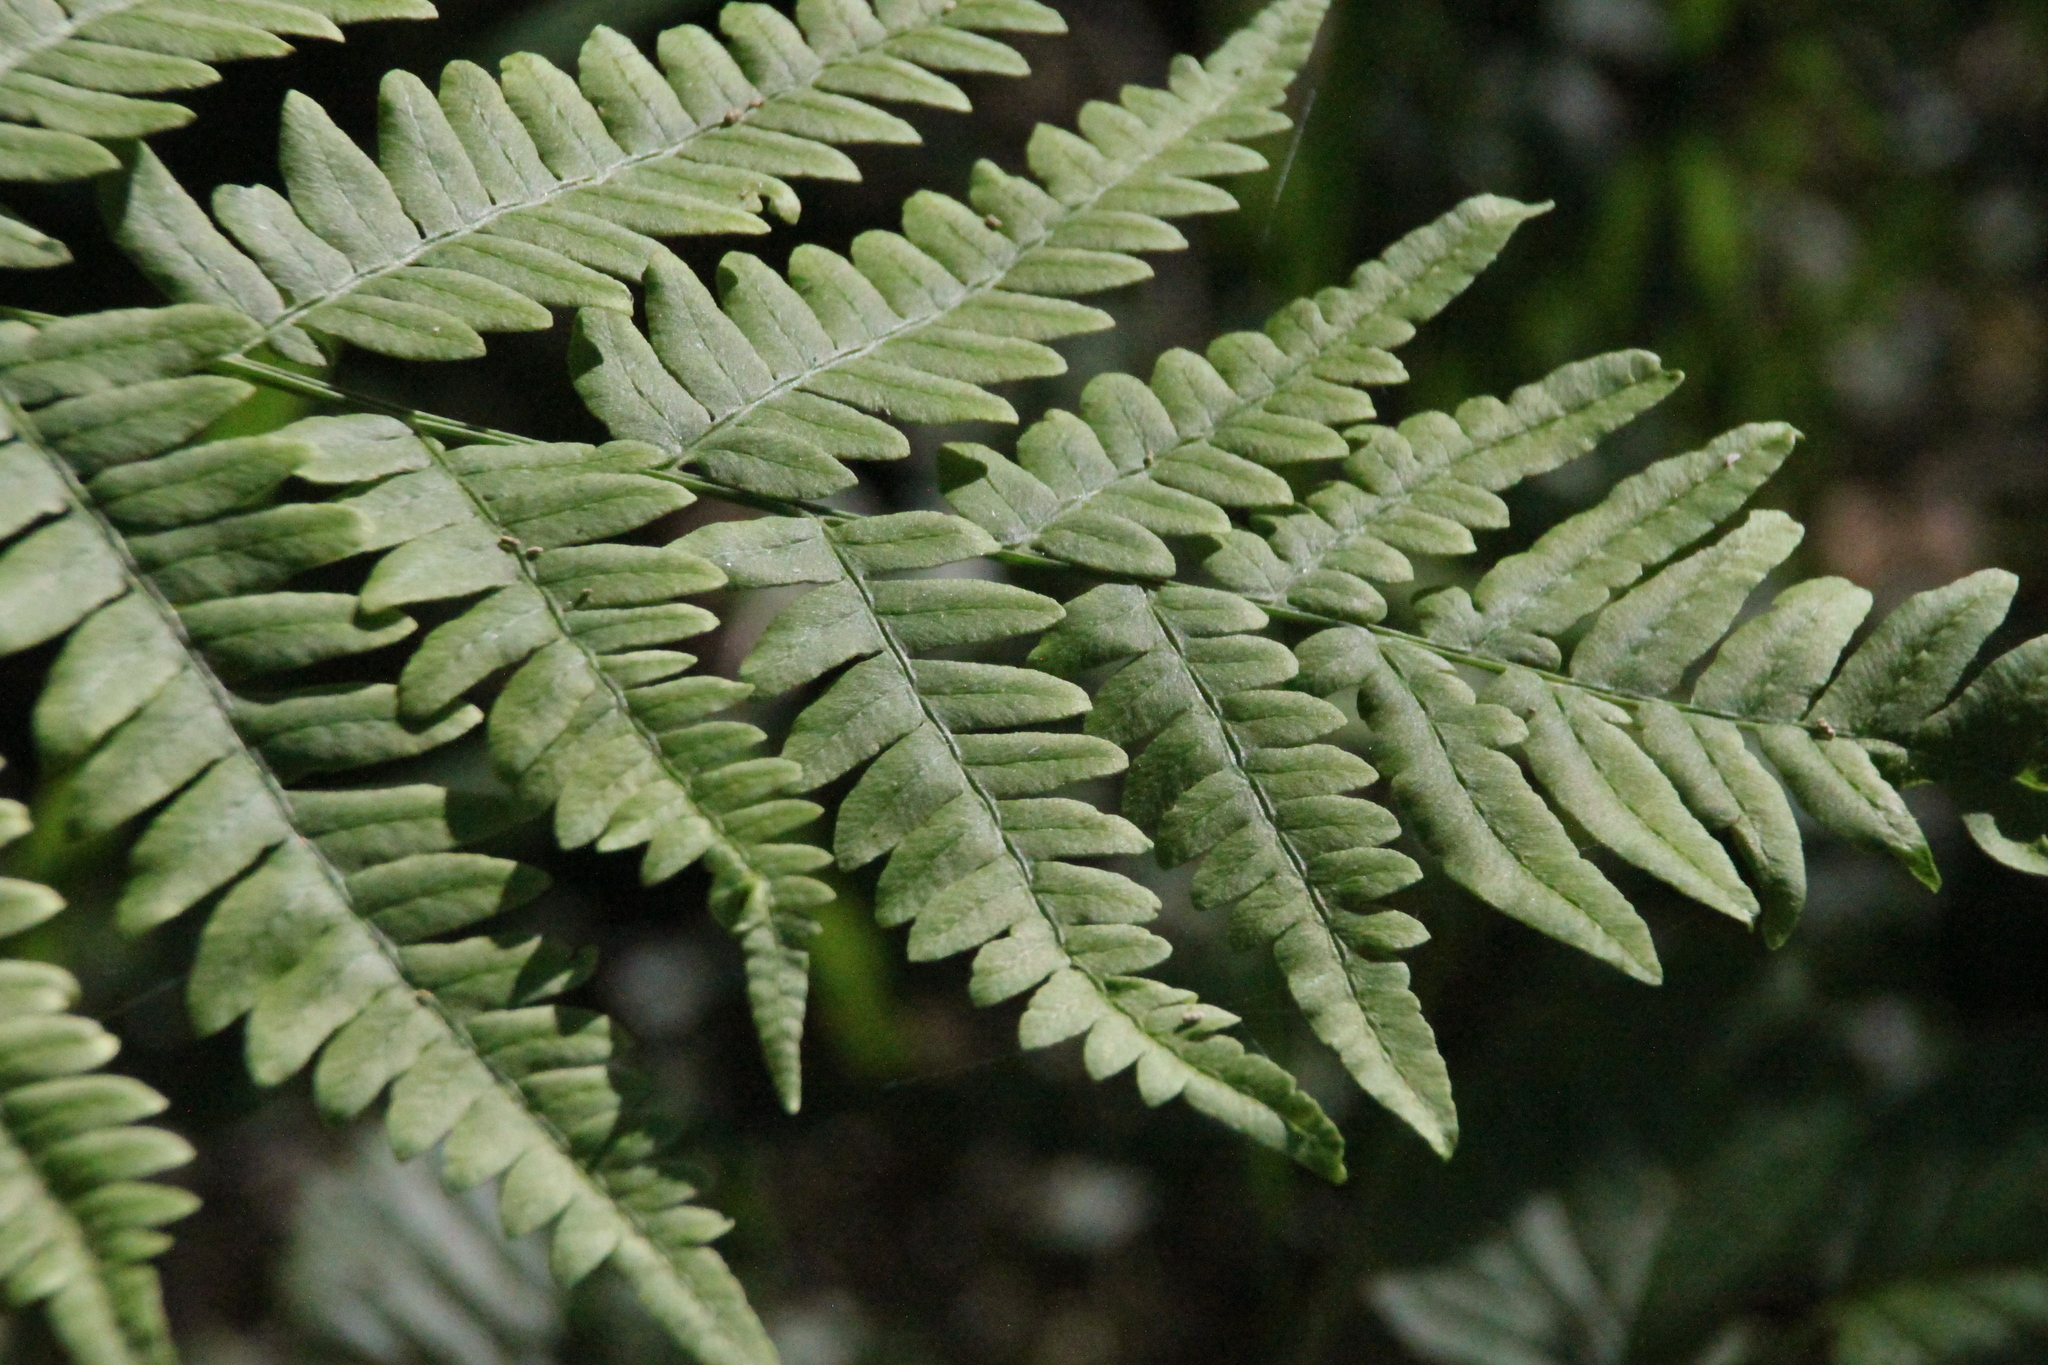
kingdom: Plantae
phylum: Tracheophyta
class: Polypodiopsida
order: Polypodiales
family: Dennstaedtiaceae
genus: Pteridium
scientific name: Pteridium aquilinum
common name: Bracken
